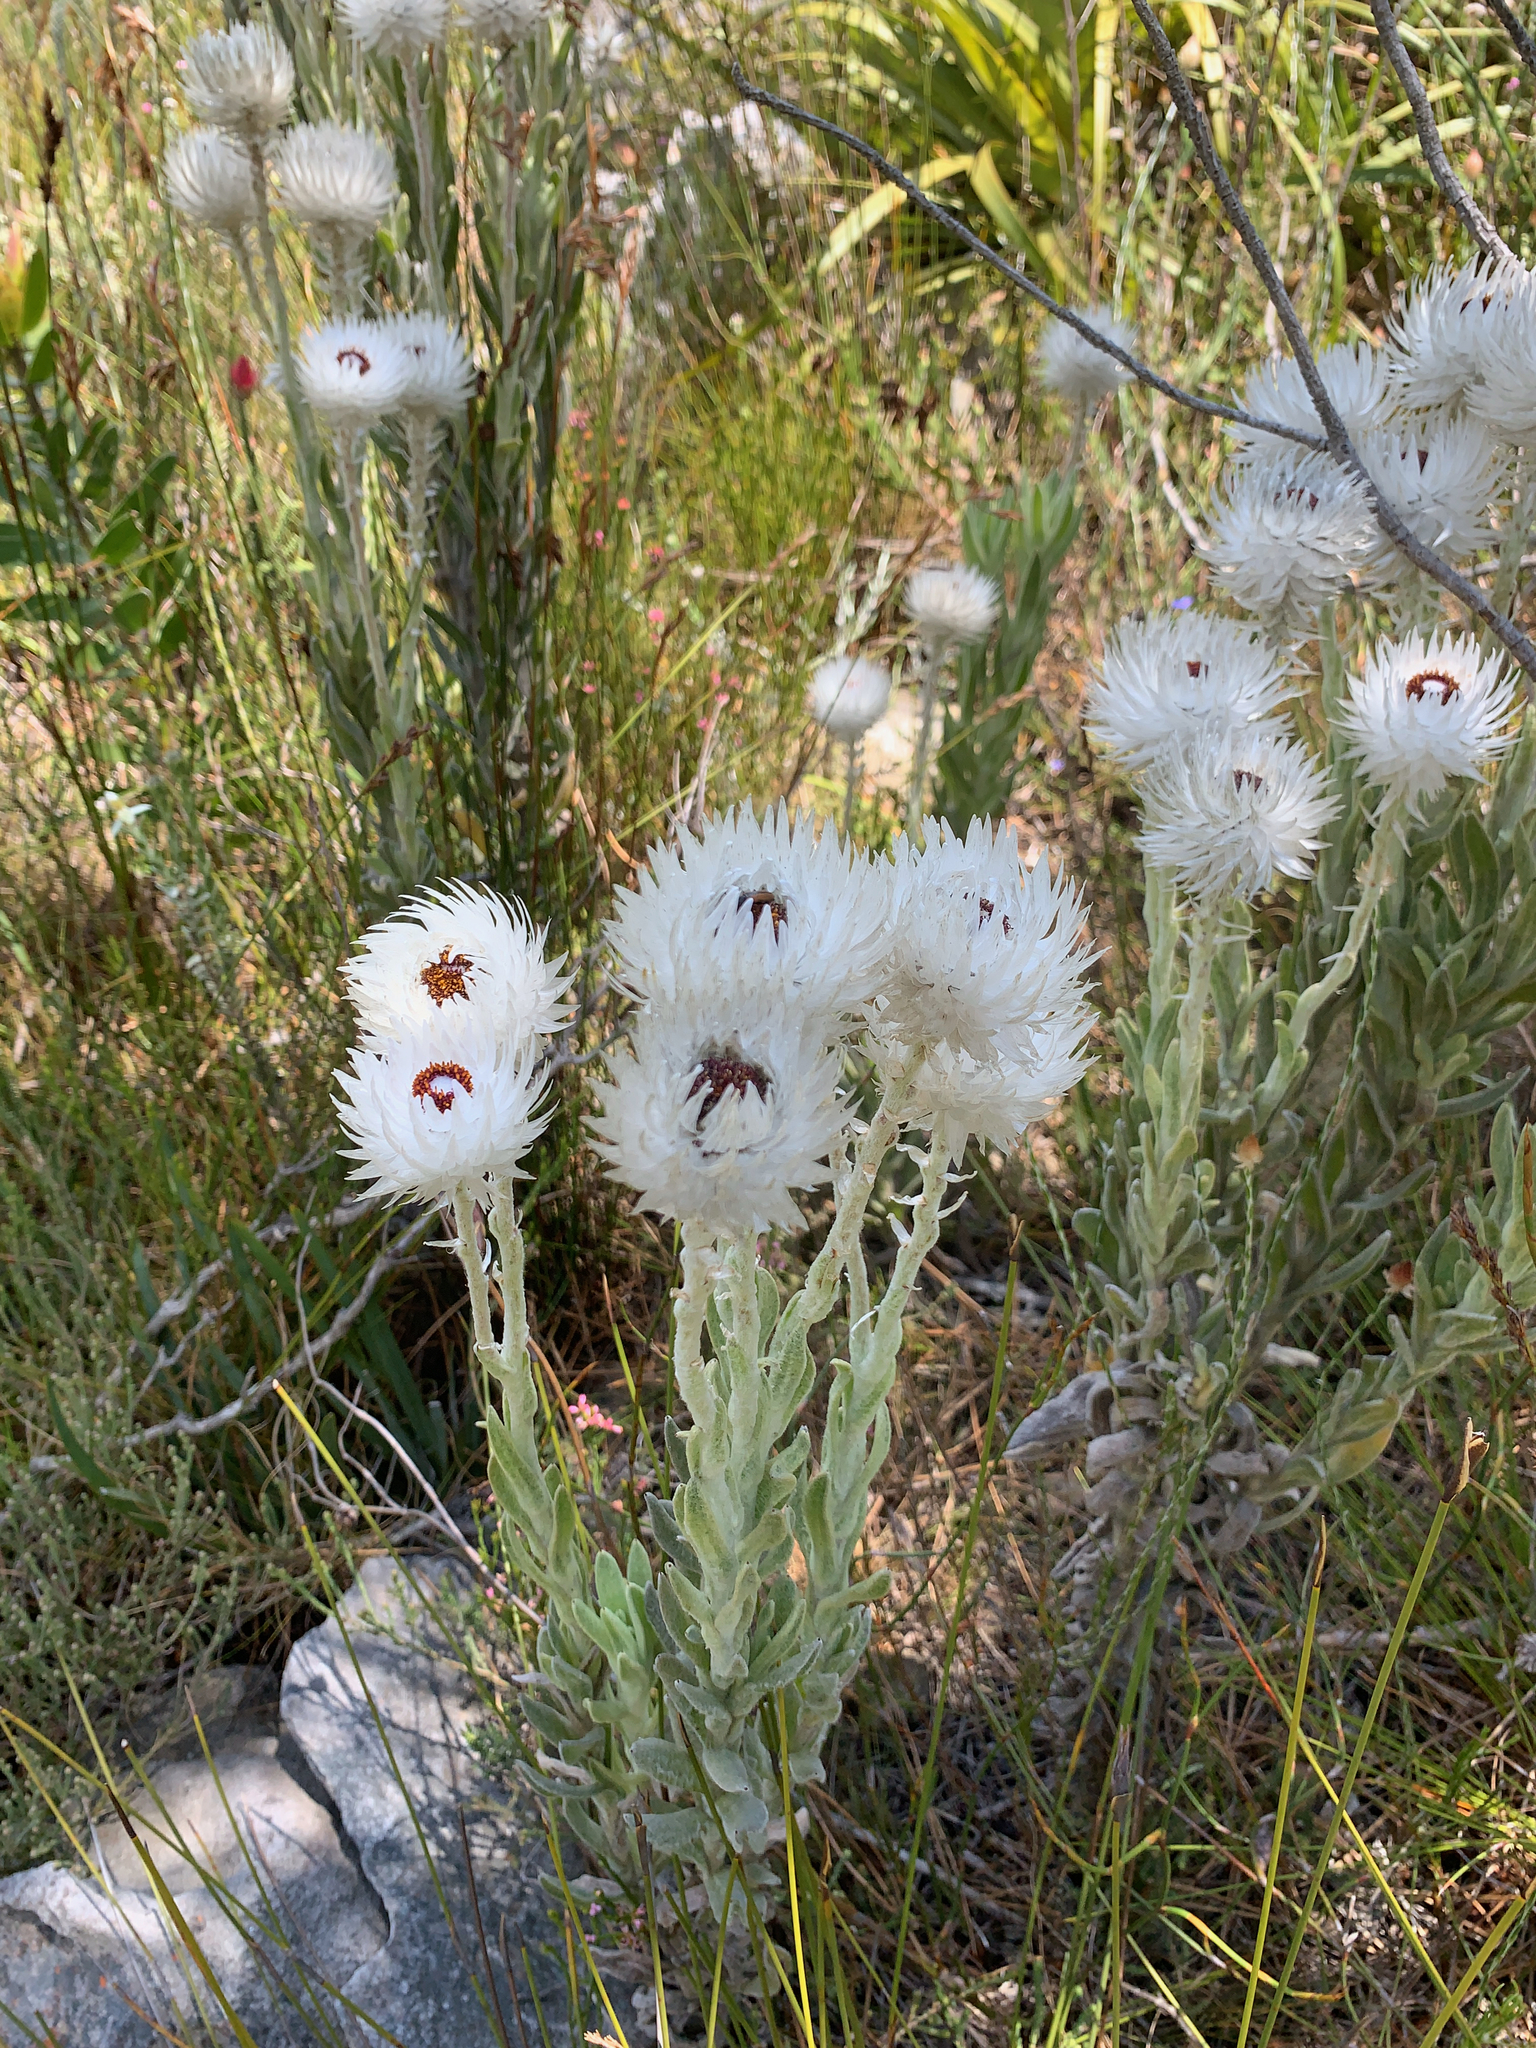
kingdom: Plantae
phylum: Tracheophyta
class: Magnoliopsida
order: Asterales
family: Asteraceae
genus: Syncarpha
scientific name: Syncarpha vestita
